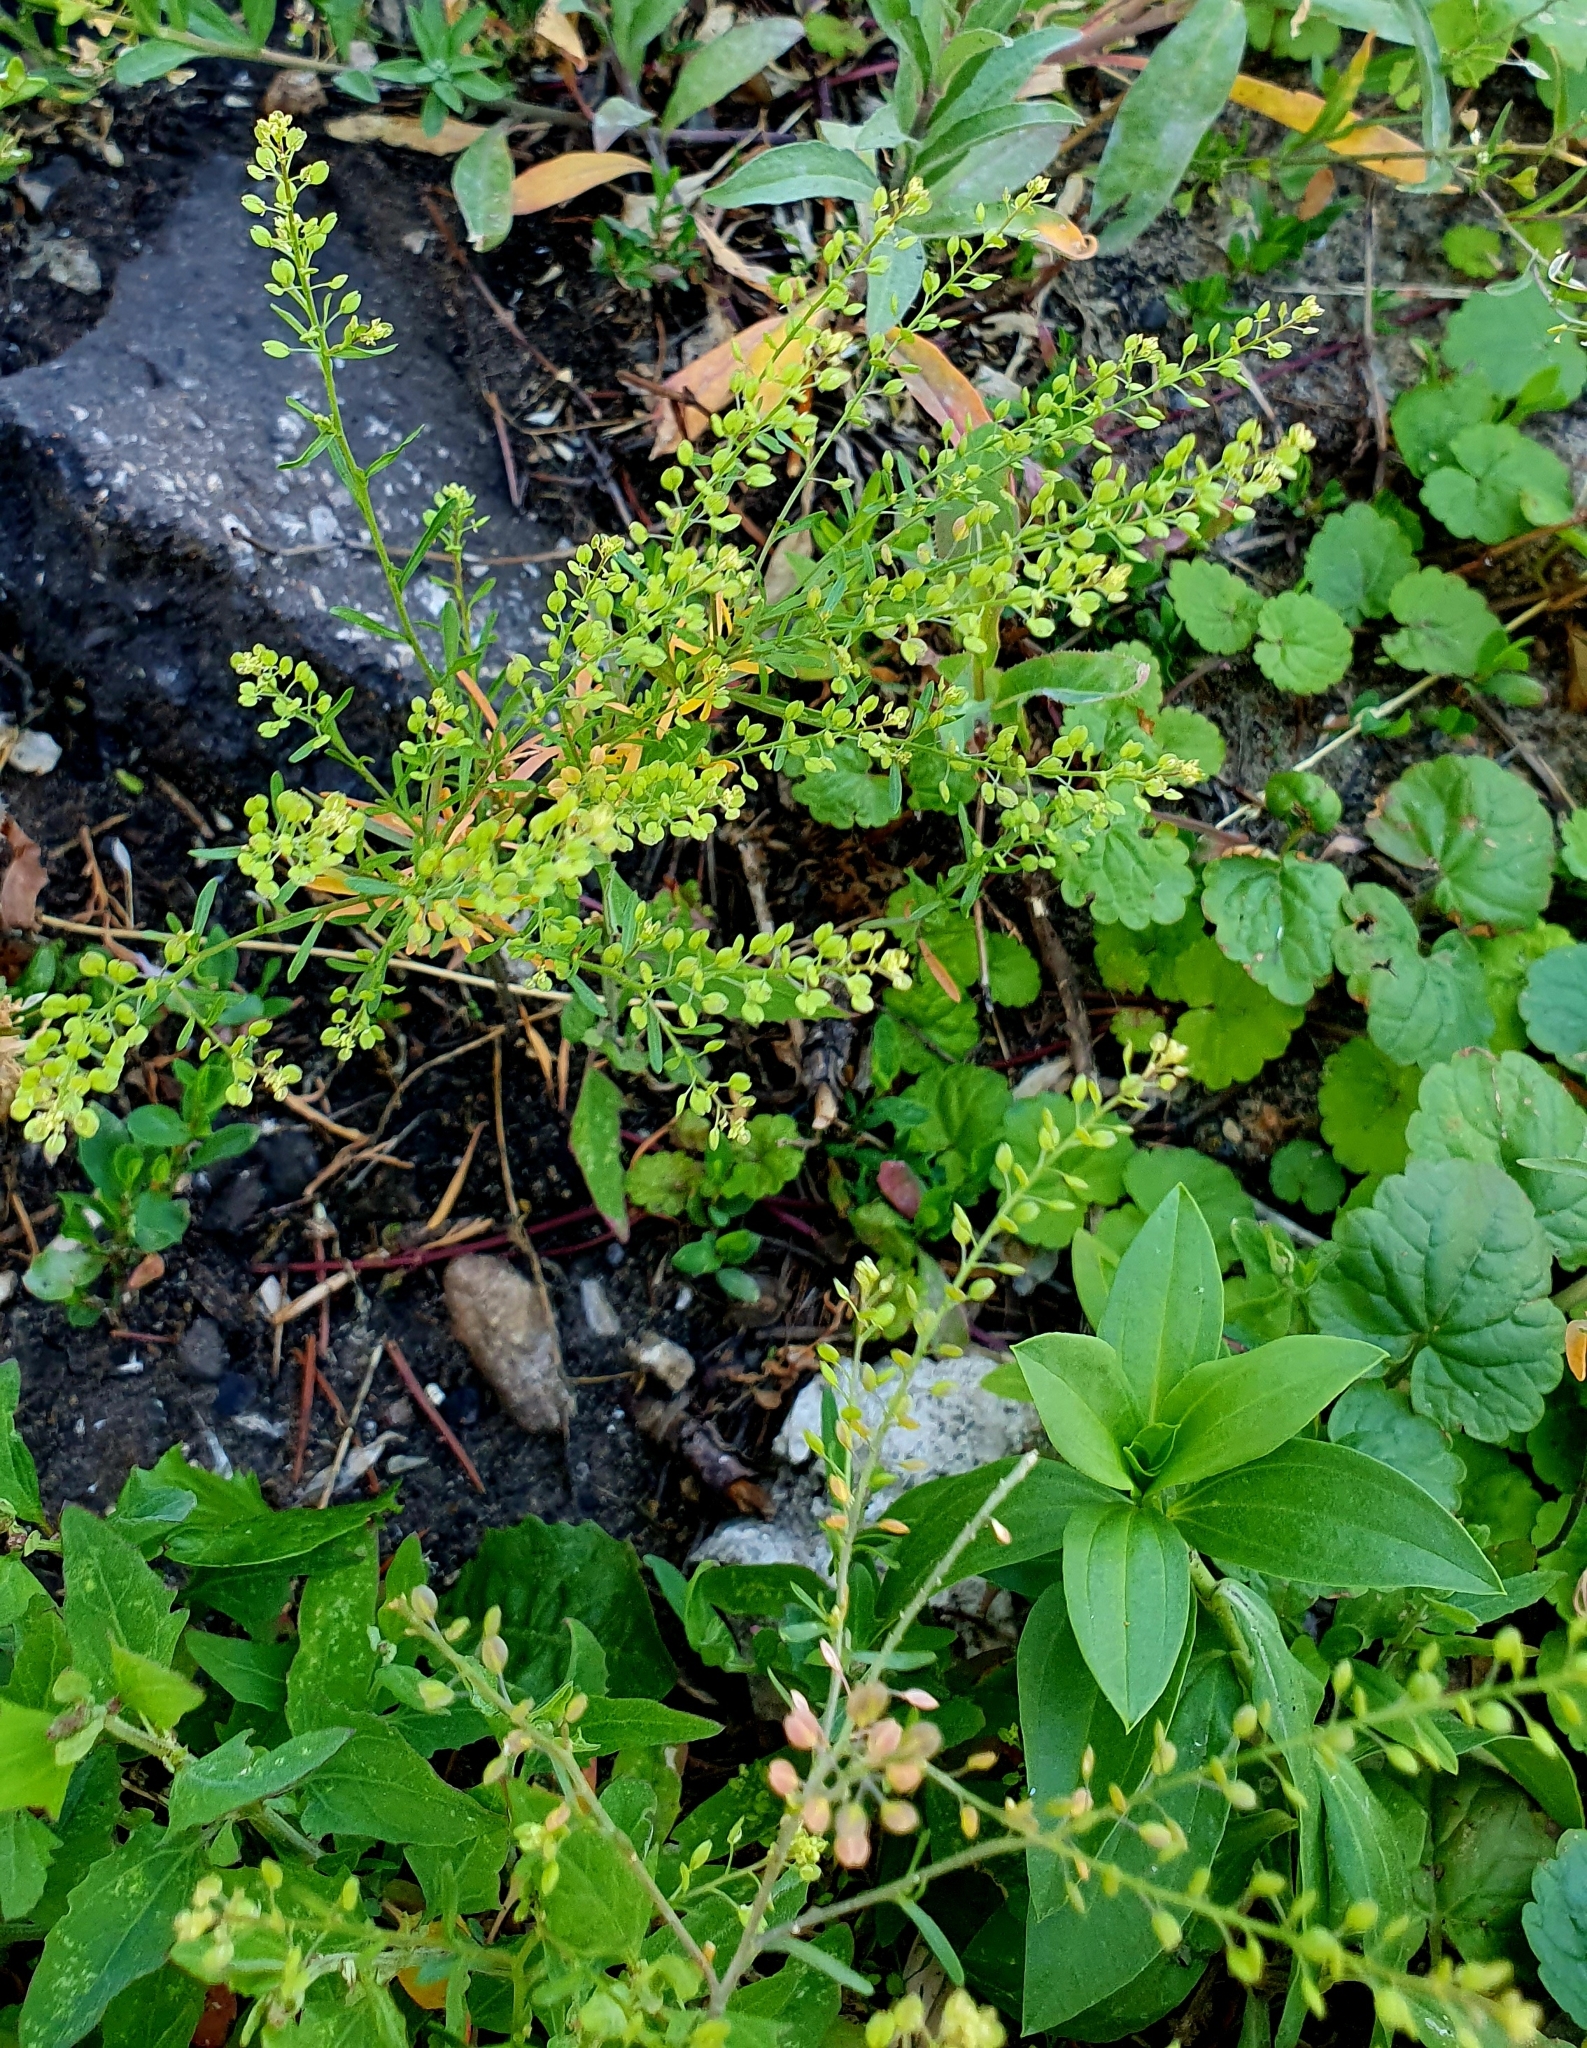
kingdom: Plantae
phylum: Tracheophyta
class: Magnoliopsida
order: Brassicales
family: Brassicaceae
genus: Lepidium
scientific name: Lepidium ruderale
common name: Narrow-leaved pepperwort
